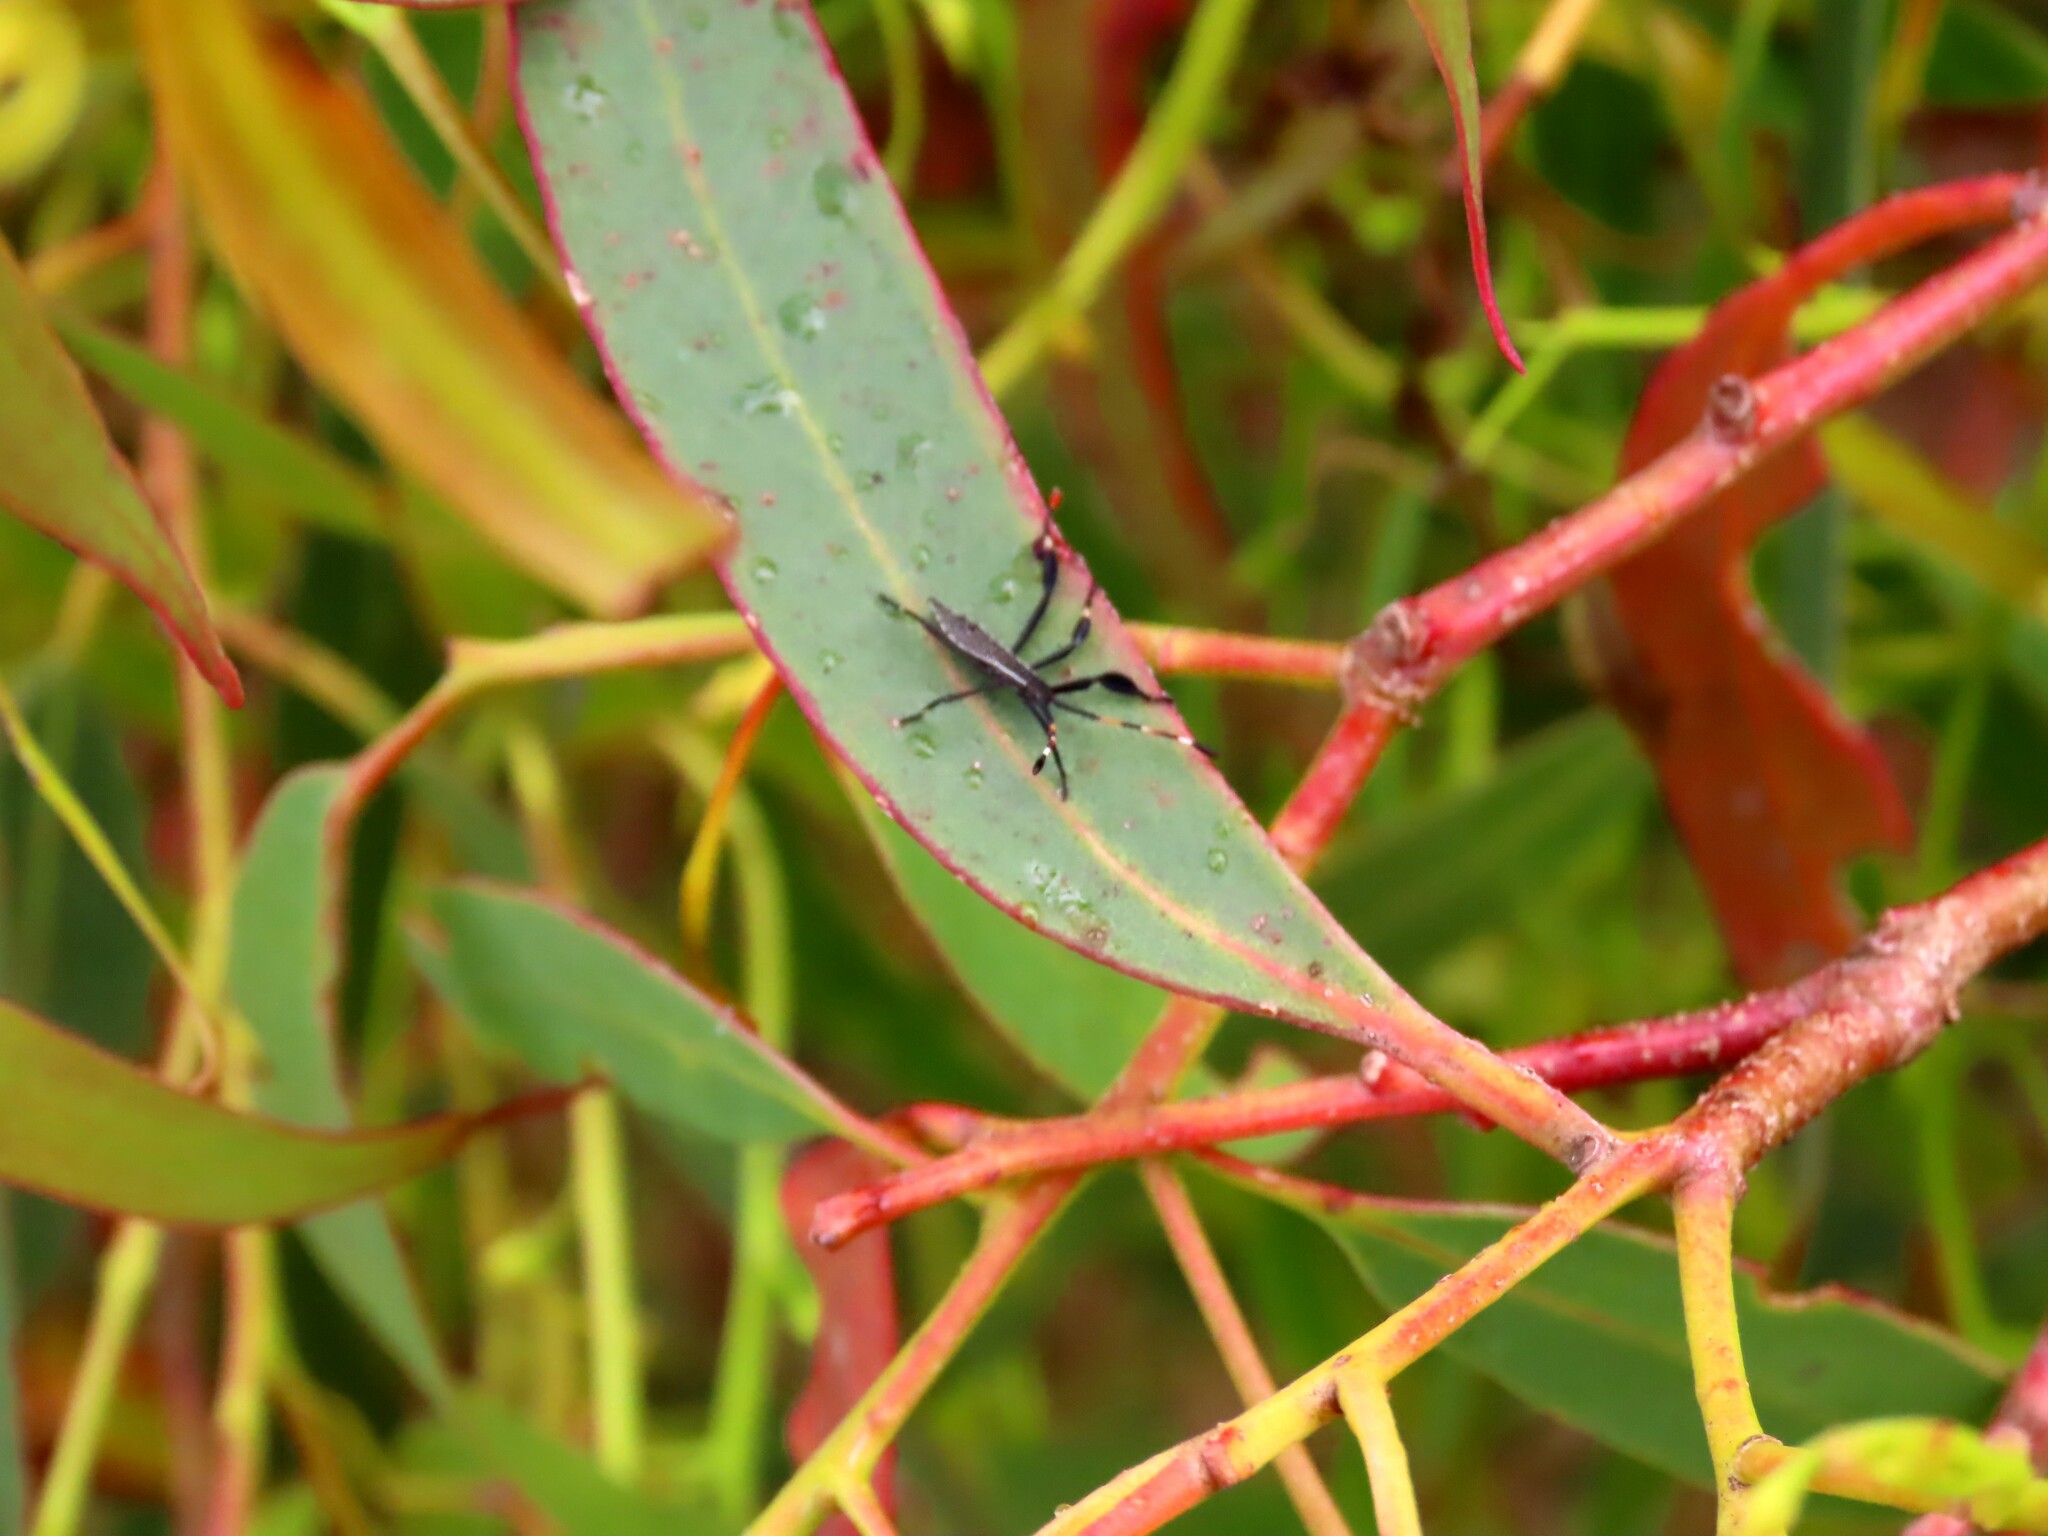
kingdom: Animalia
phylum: Arthropoda
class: Insecta
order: Hemiptera
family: Coreidae
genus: Gelonus
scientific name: Gelonus tasmanicus
